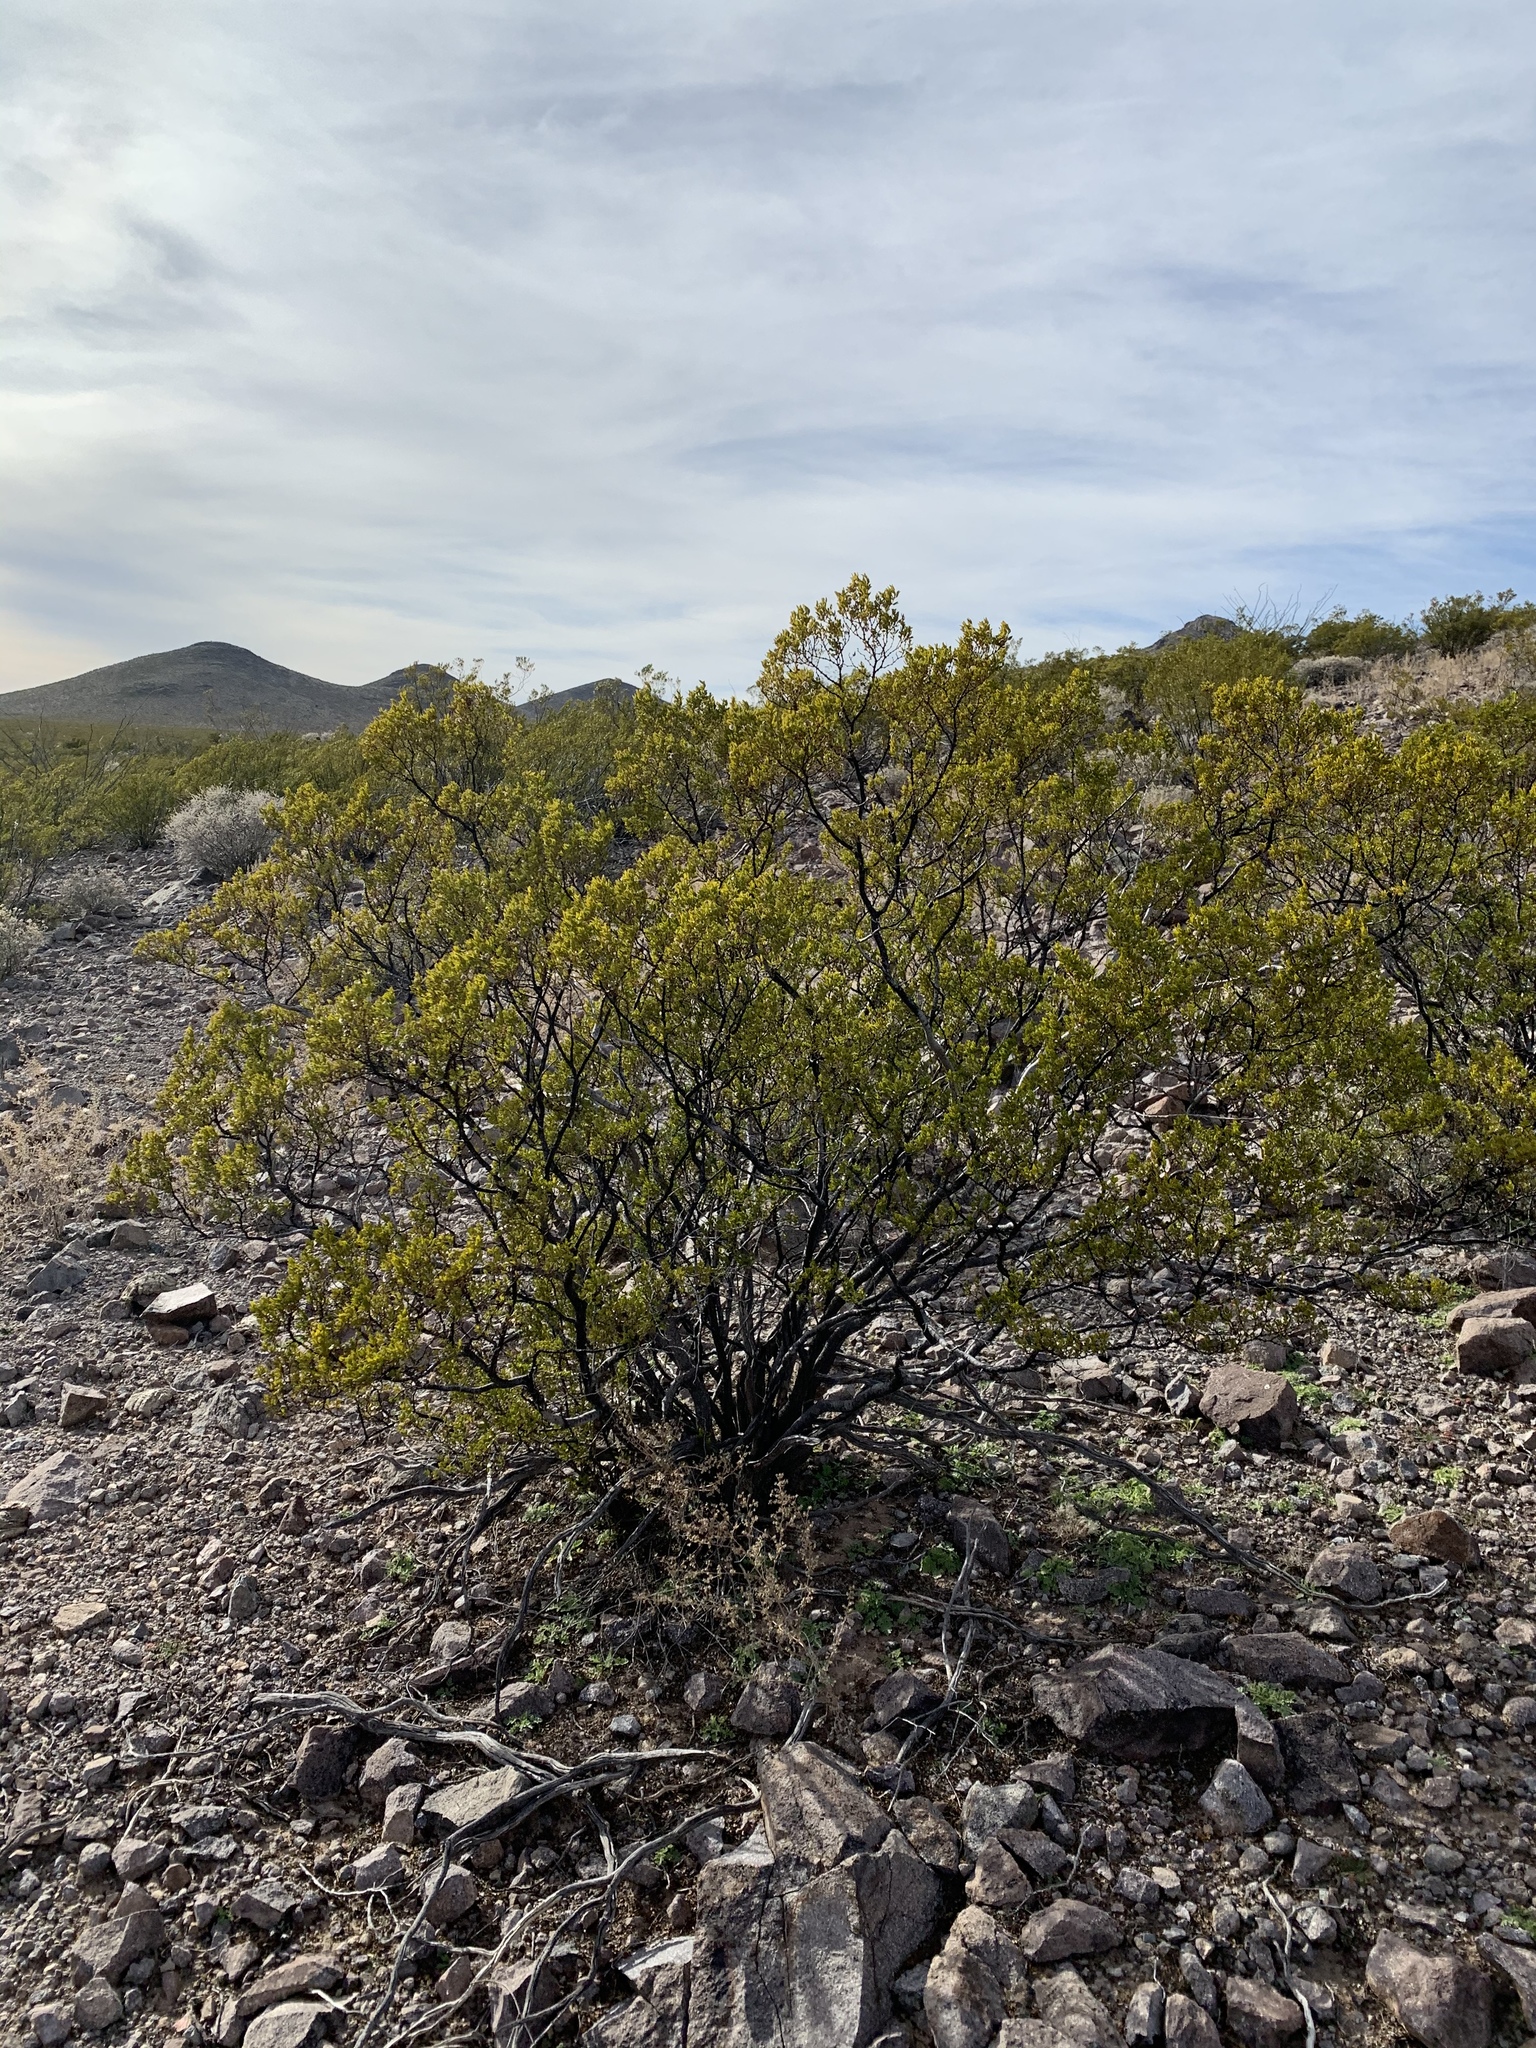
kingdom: Plantae
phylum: Tracheophyta
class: Magnoliopsida
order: Zygophyllales
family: Zygophyllaceae
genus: Larrea
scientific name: Larrea tridentata
